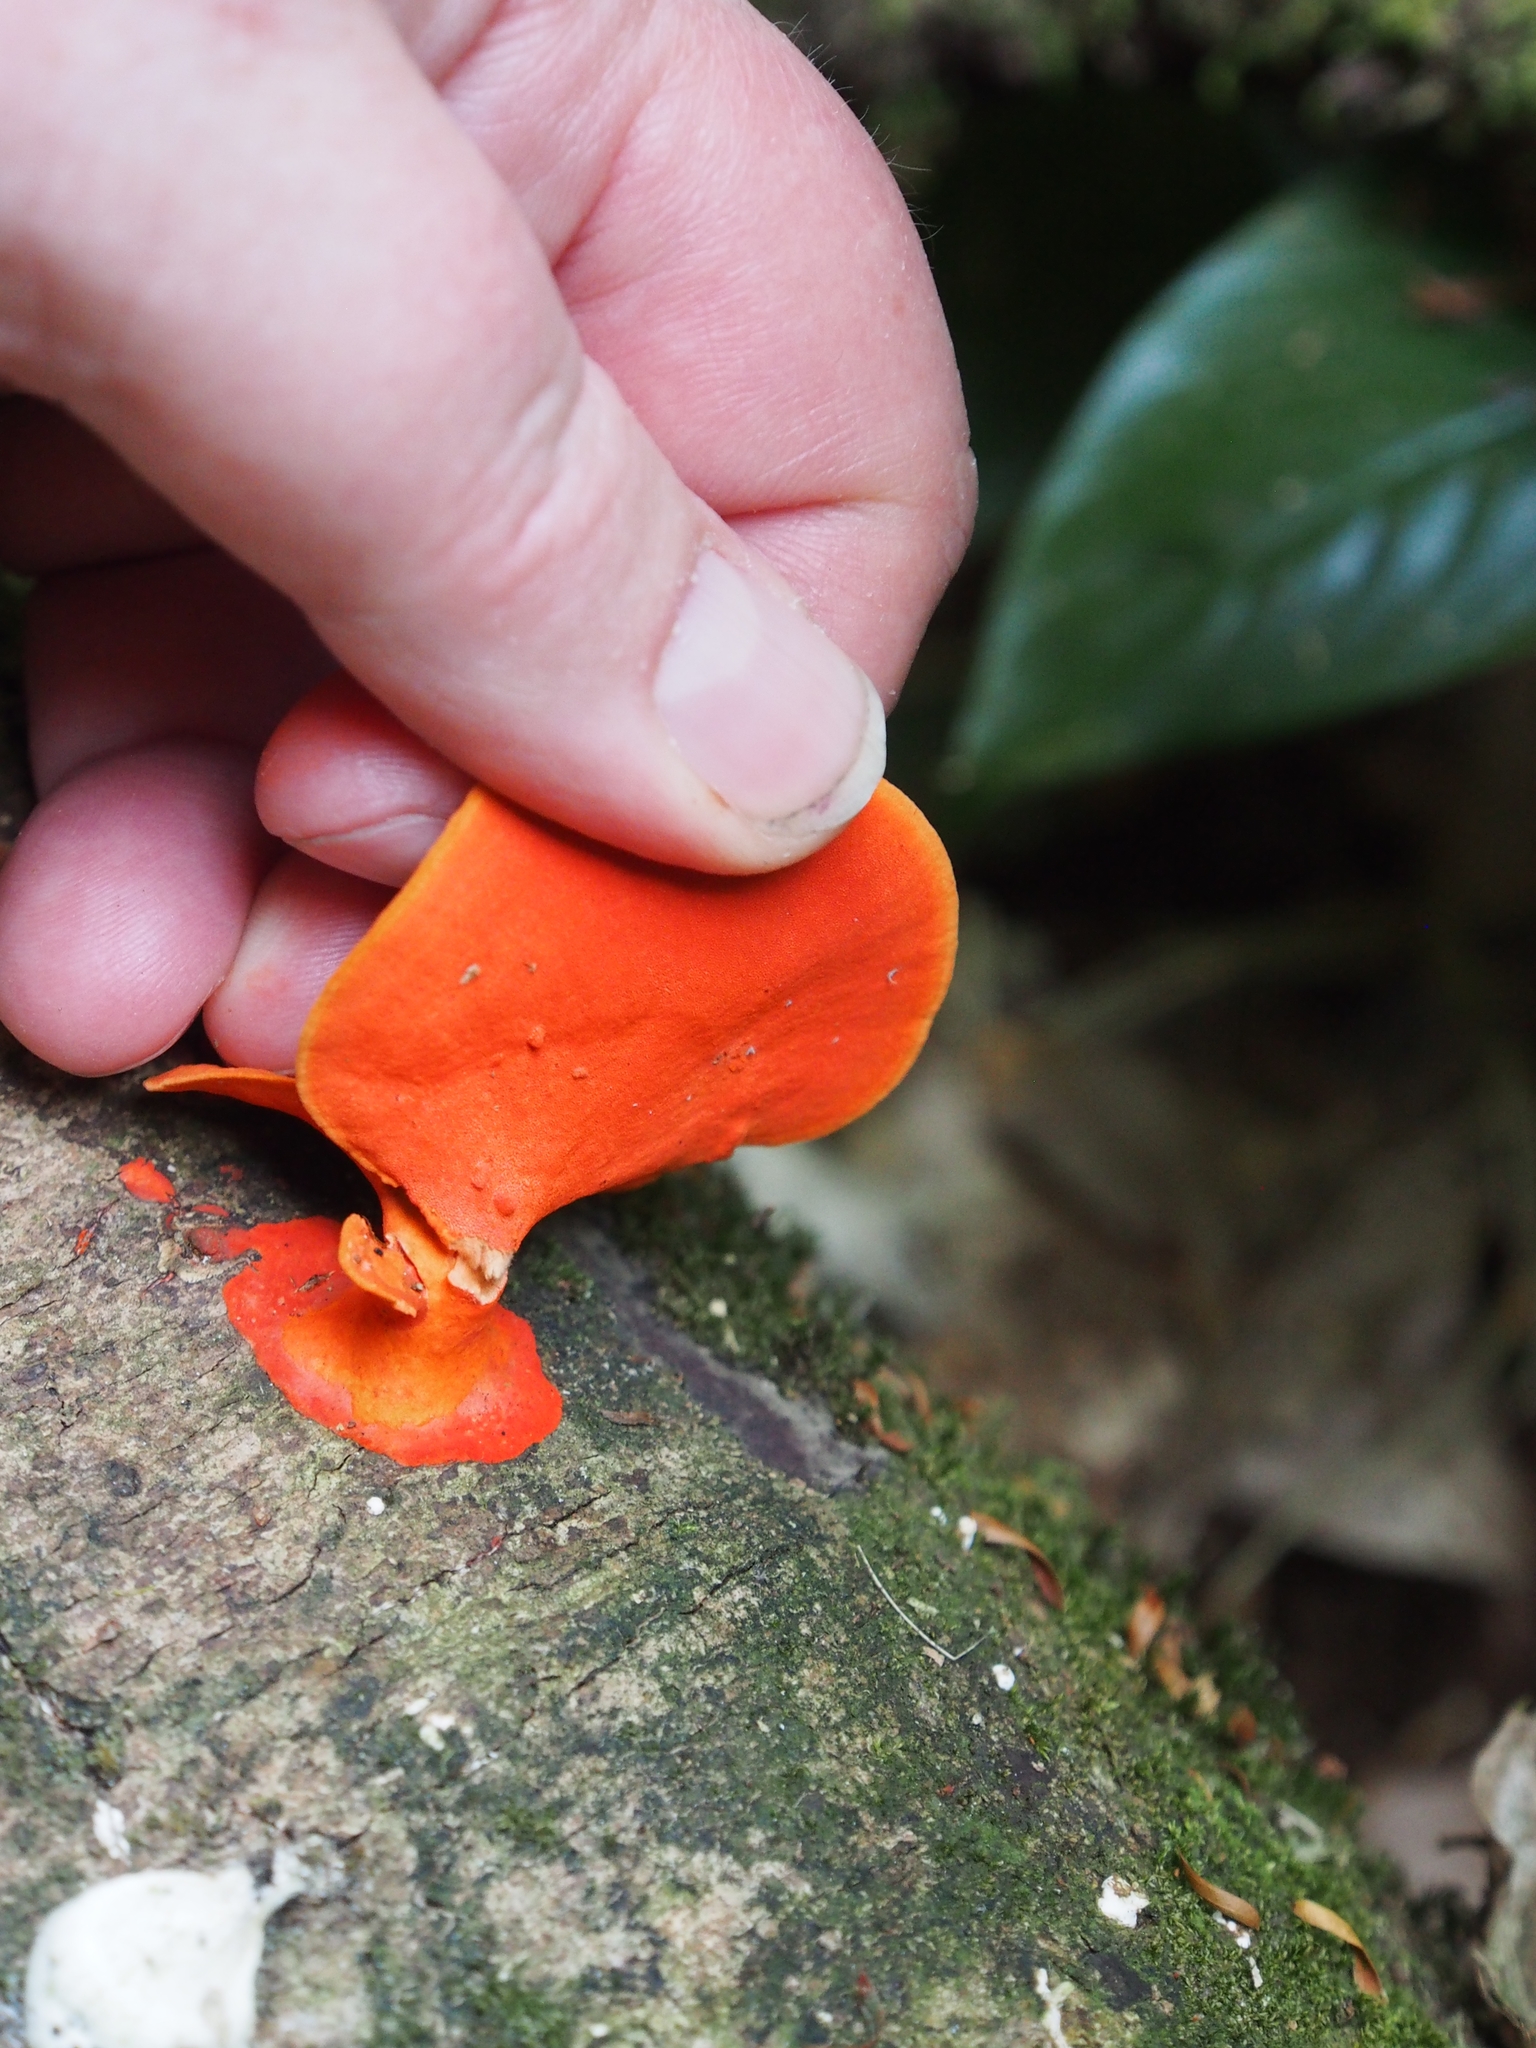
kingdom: Fungi
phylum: Basidiomycota
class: Agaricomycetes
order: Polyporales
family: Polyporaceae
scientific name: Polyporaceae
